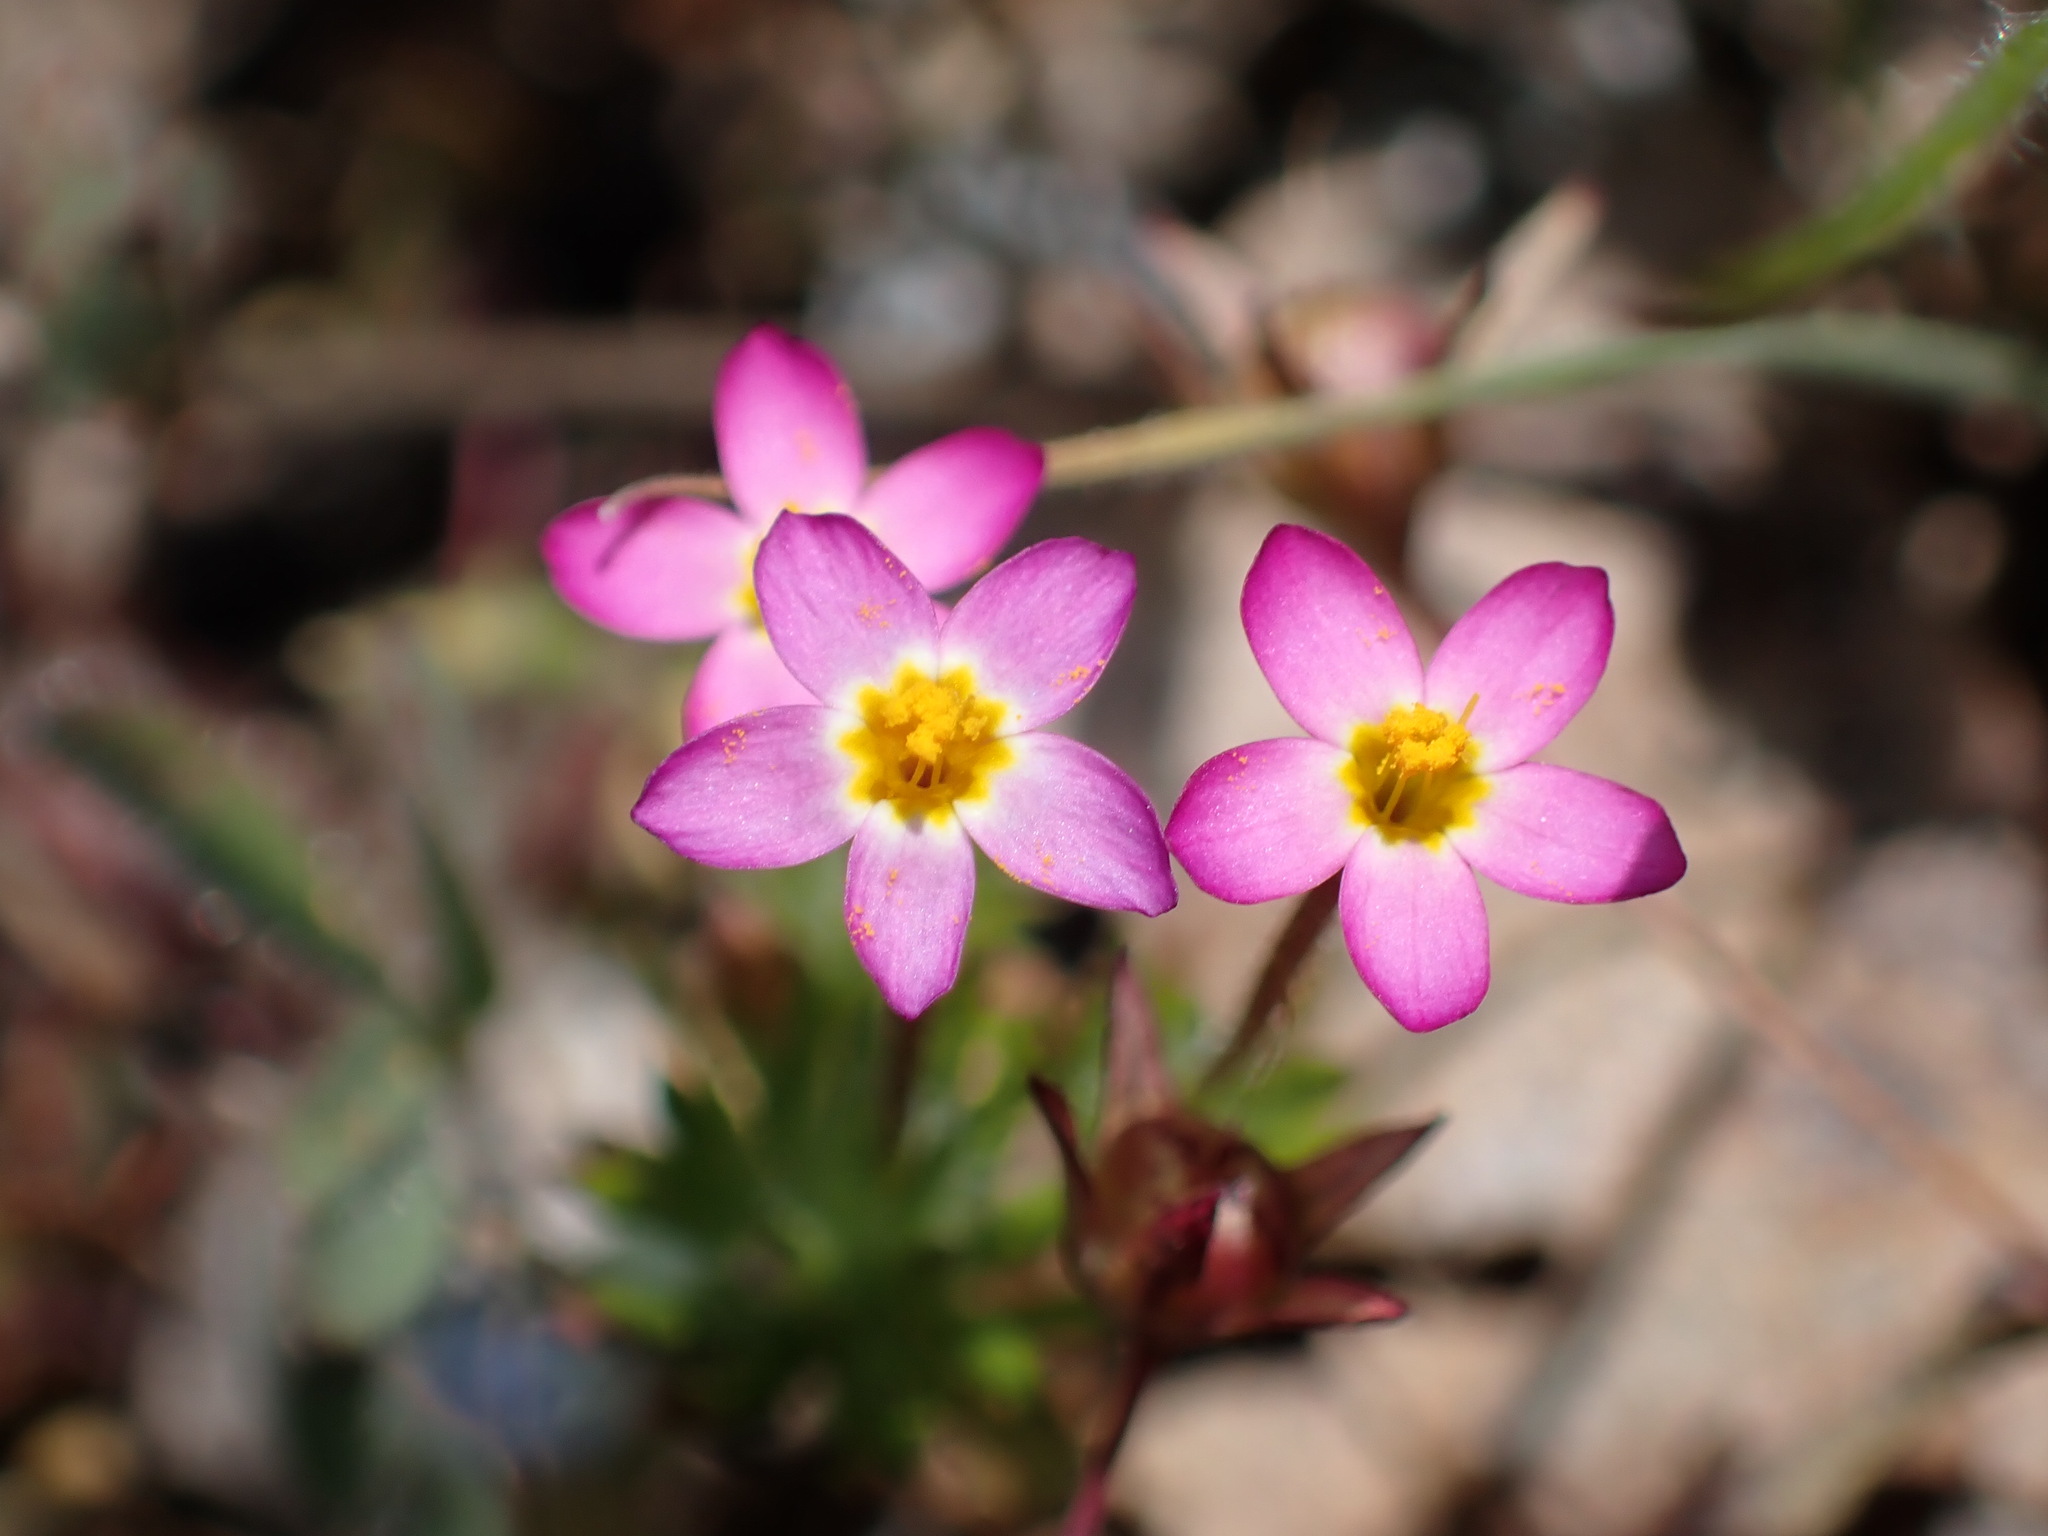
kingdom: Plantae
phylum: Tracheophyta
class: Magnoliopsida
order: Ericales
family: Polemoniaceae
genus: Leptosiphon
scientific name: Leptosiphon bicolor
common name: True babystars
